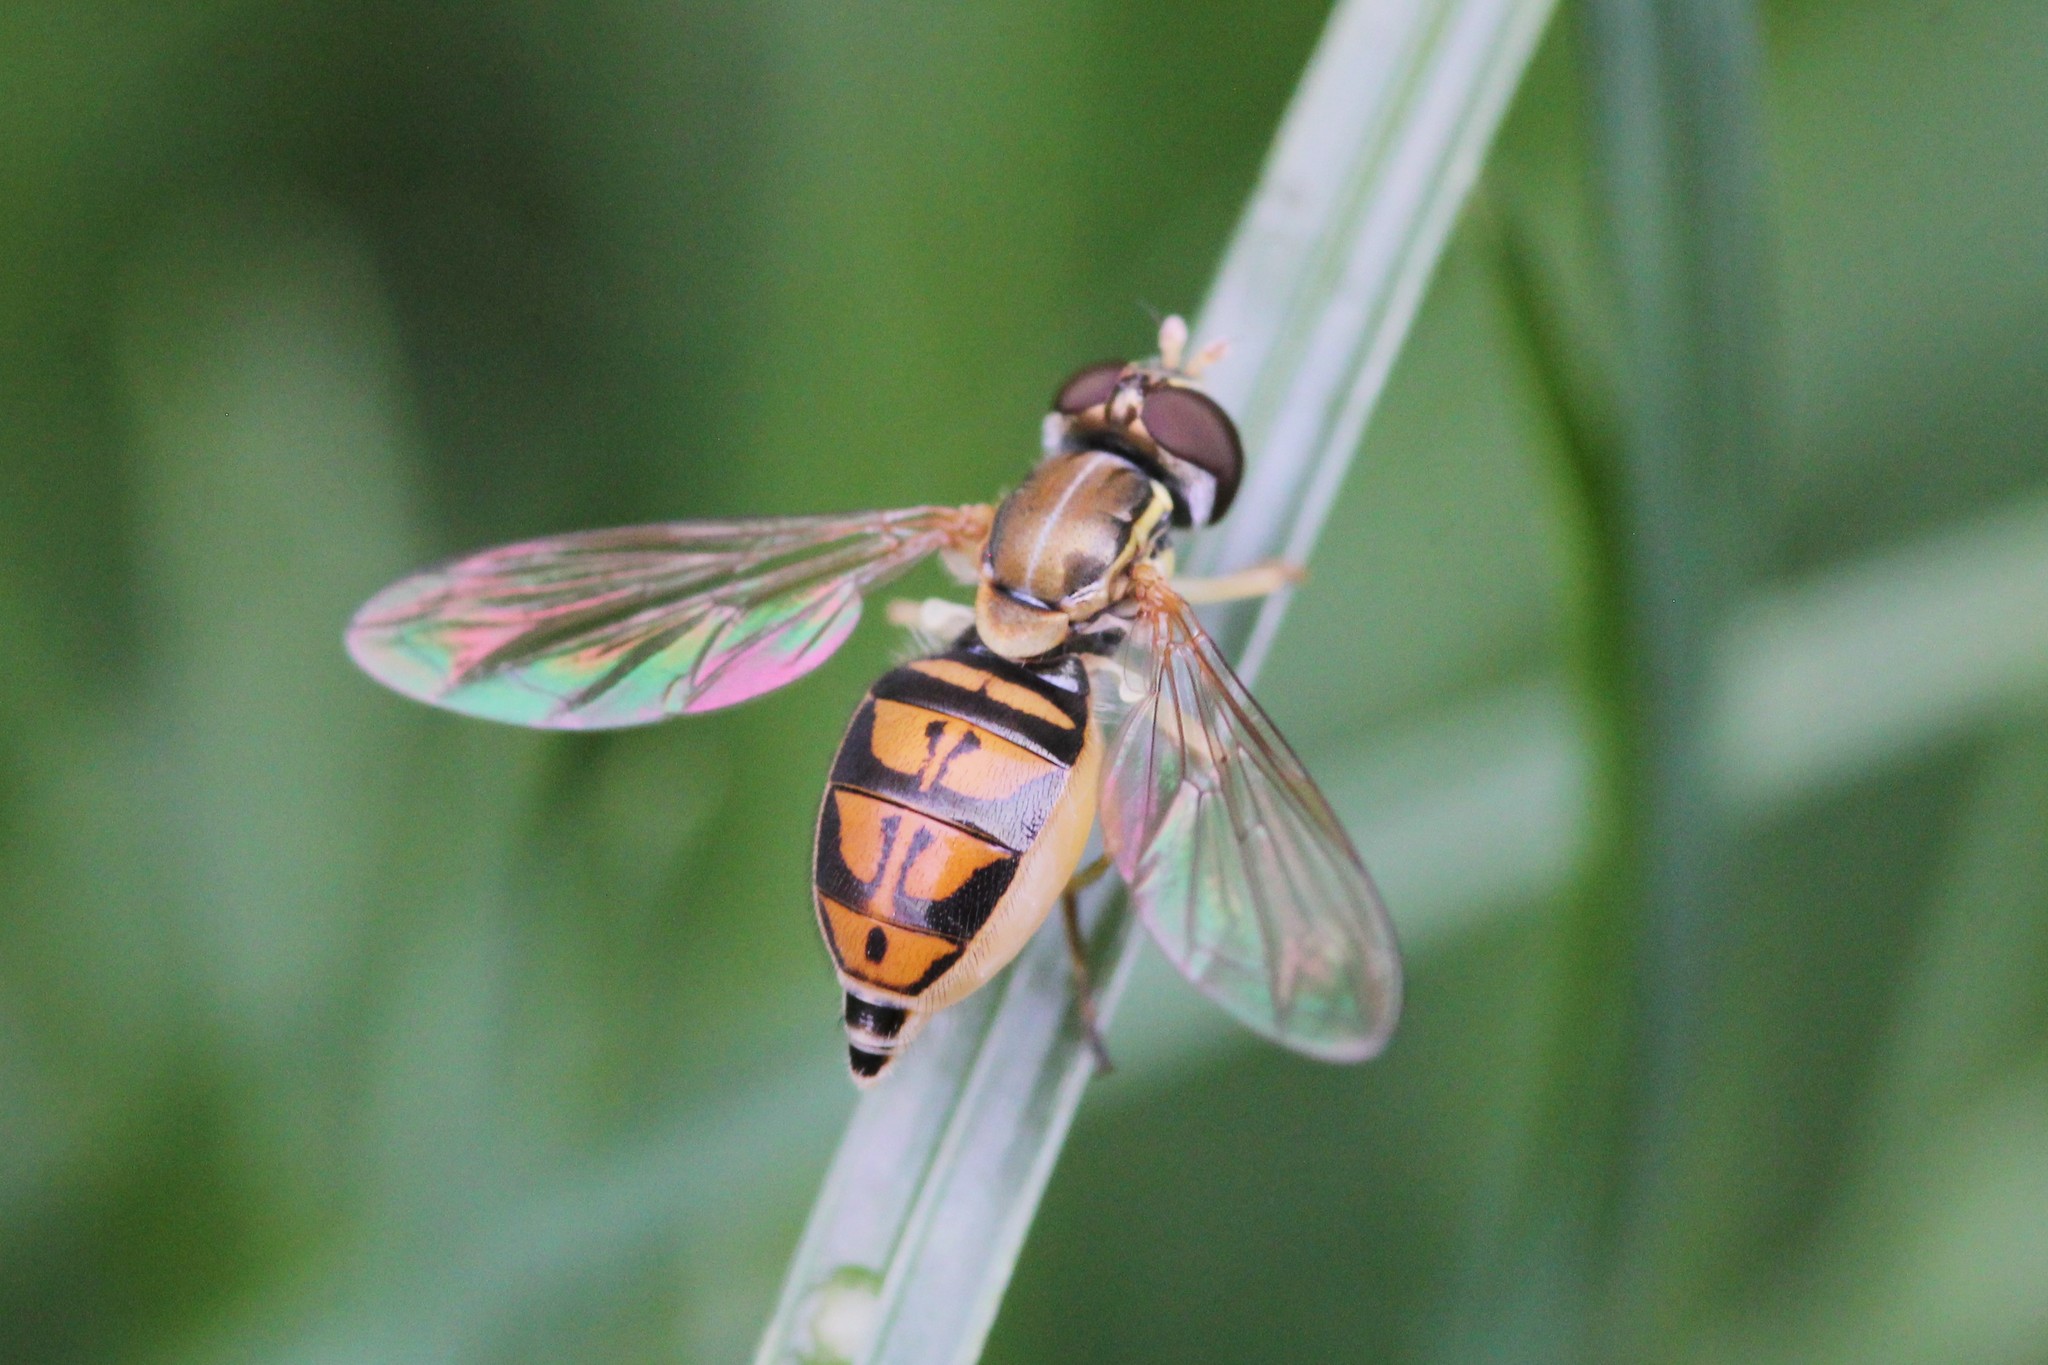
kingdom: Animalia
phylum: Arthropoda
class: Insecta
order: Diptera
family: Syrphidae
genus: Toxomerus
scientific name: Toxomerus marginatus
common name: Syrphid fly
